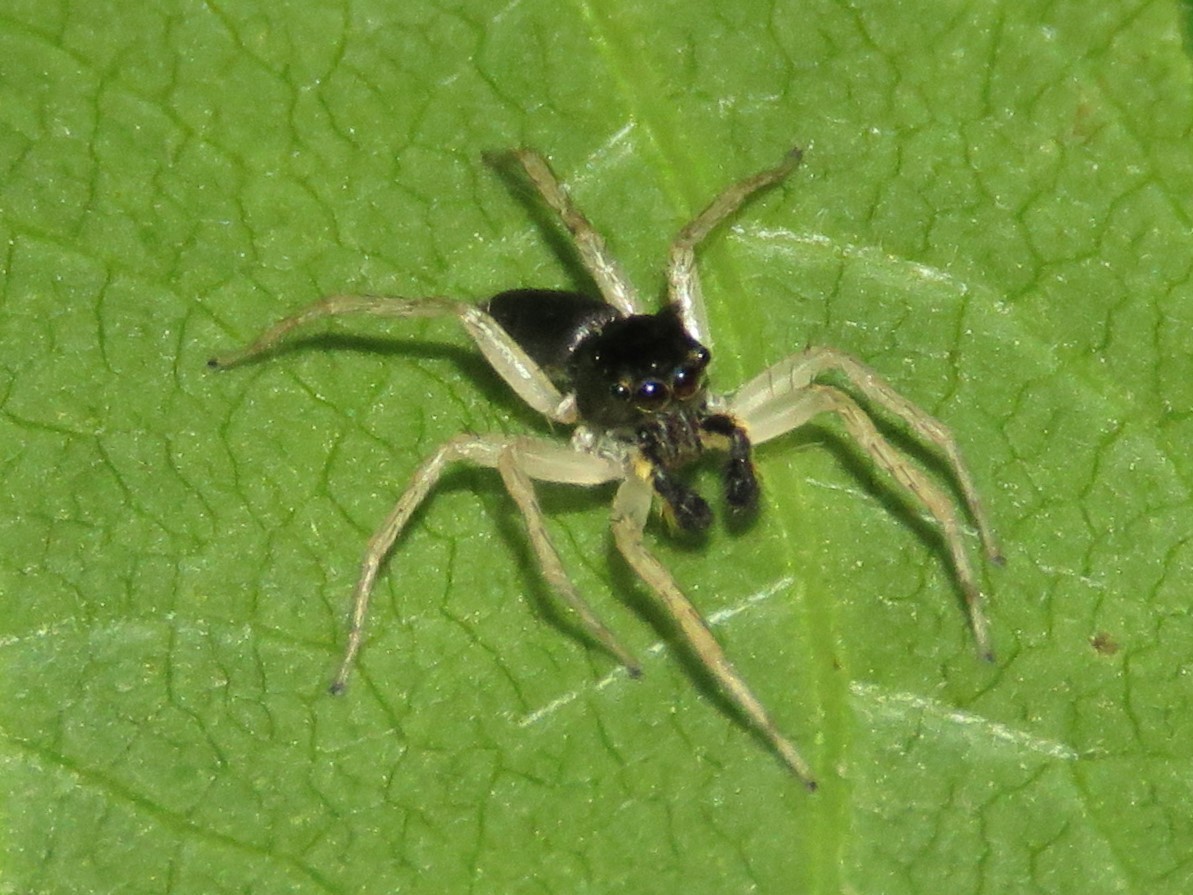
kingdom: Animalia
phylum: Arthropoda
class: Arachnida
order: Araneae
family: Salticidae
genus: Maevia
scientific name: Maevia inclemens
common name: Dimorphic jumper
